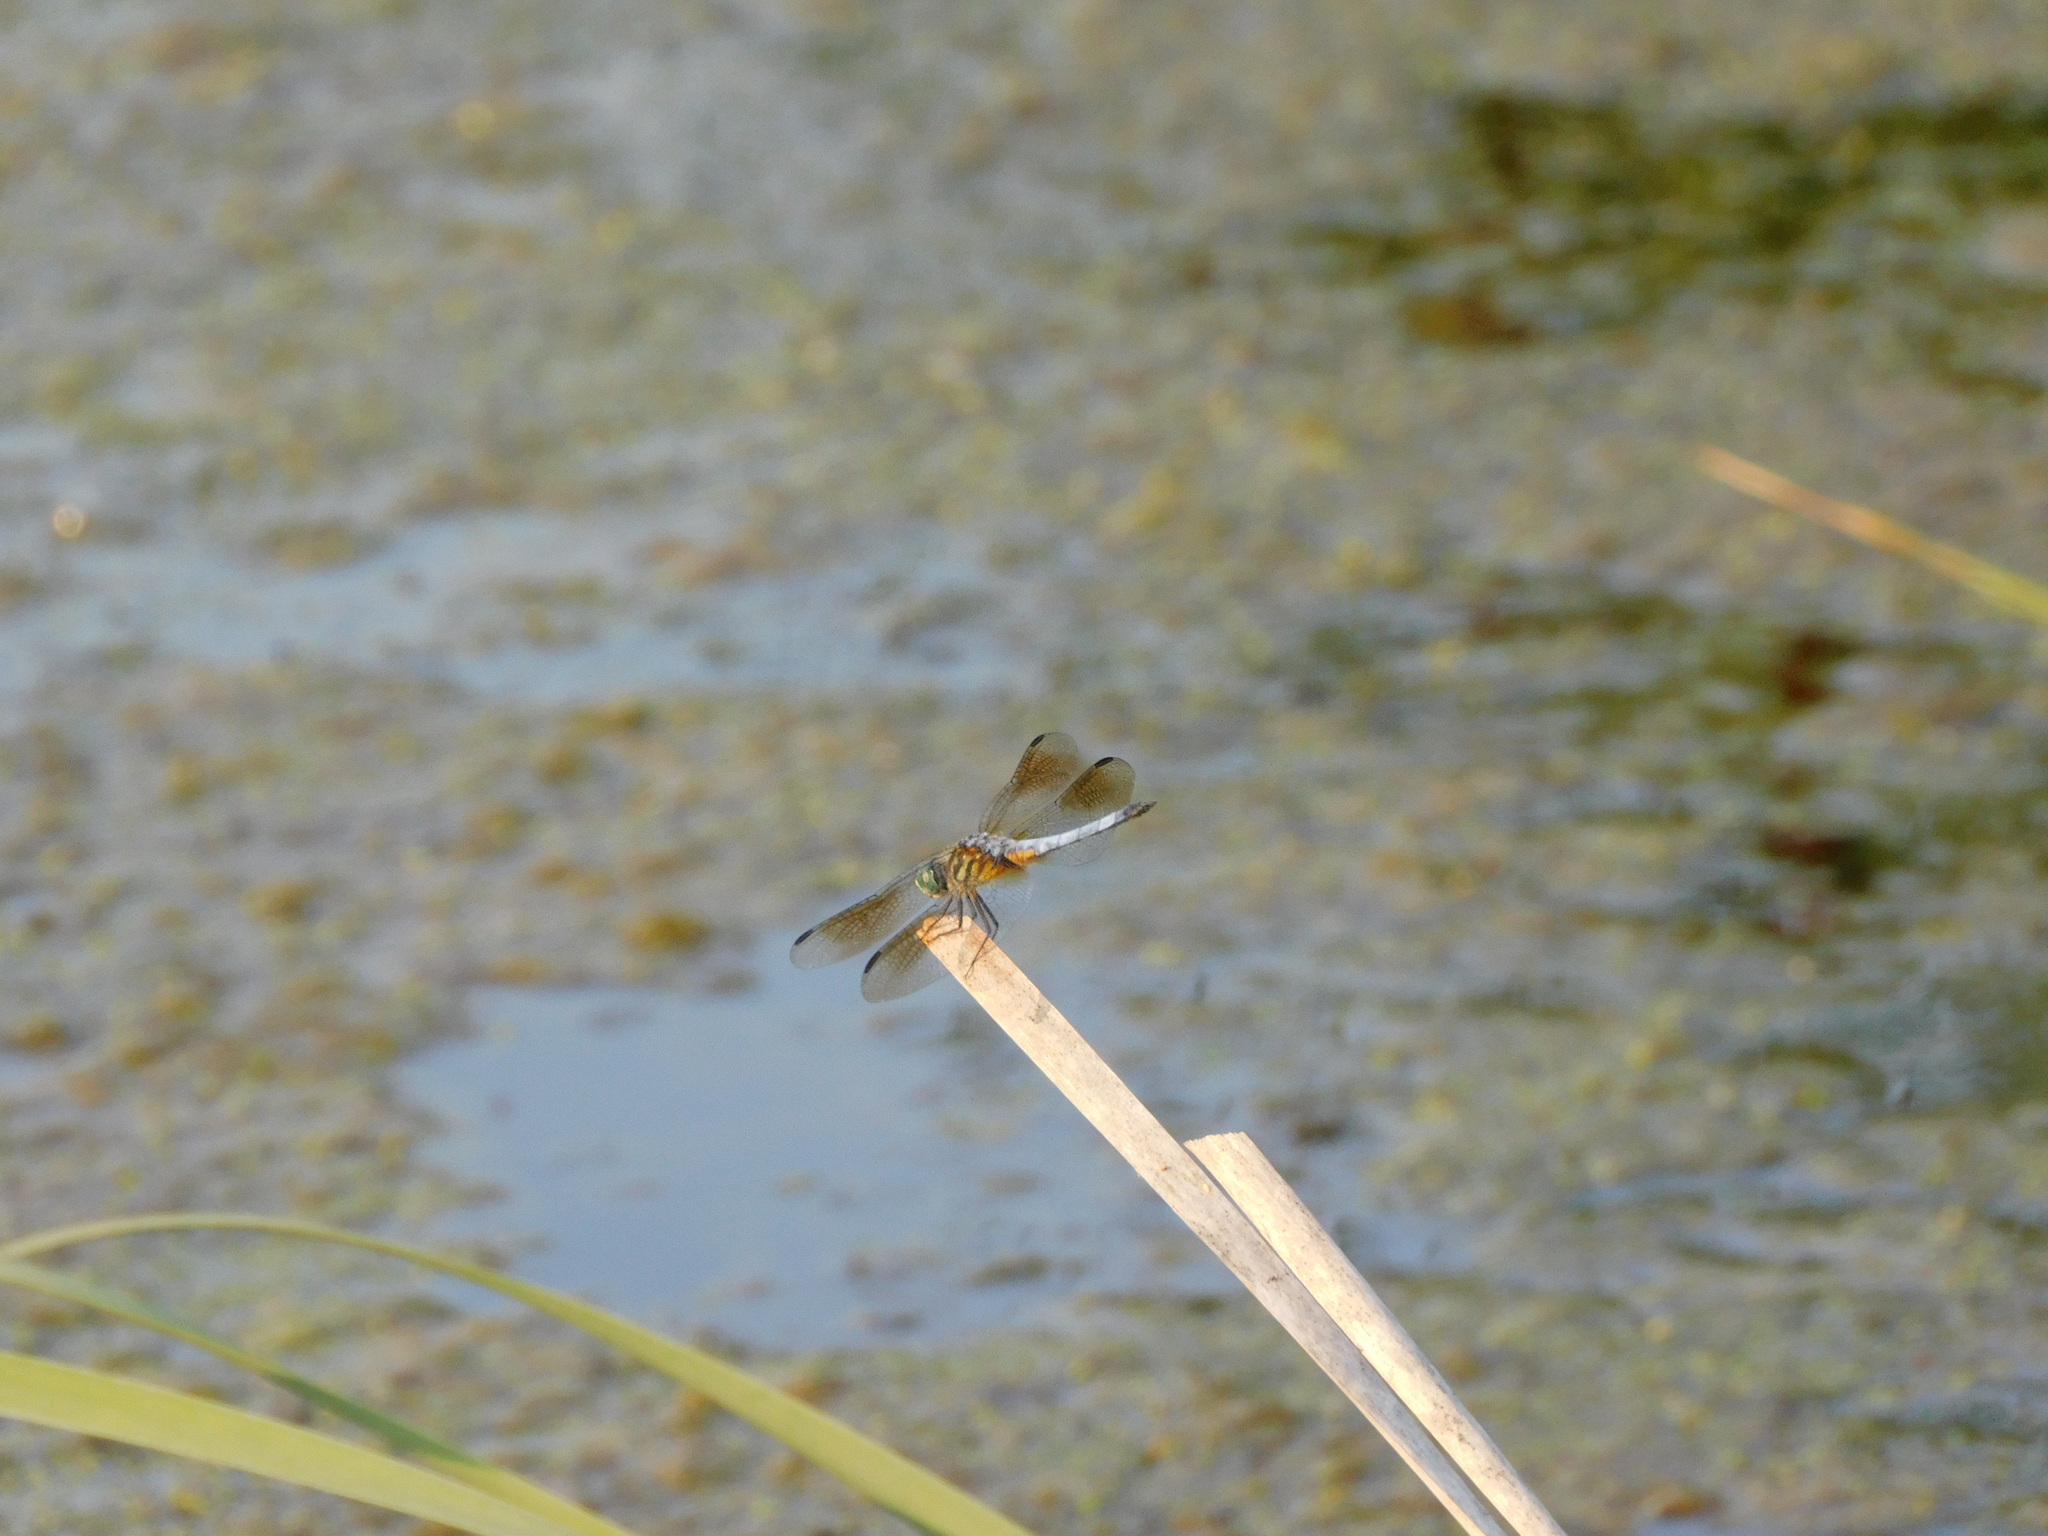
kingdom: Animalia
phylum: Arthropoda
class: Insecta
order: Odonata
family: Libellulidae
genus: Pachydiplax
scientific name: Pachydiplax longipennis
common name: Blue dasher
